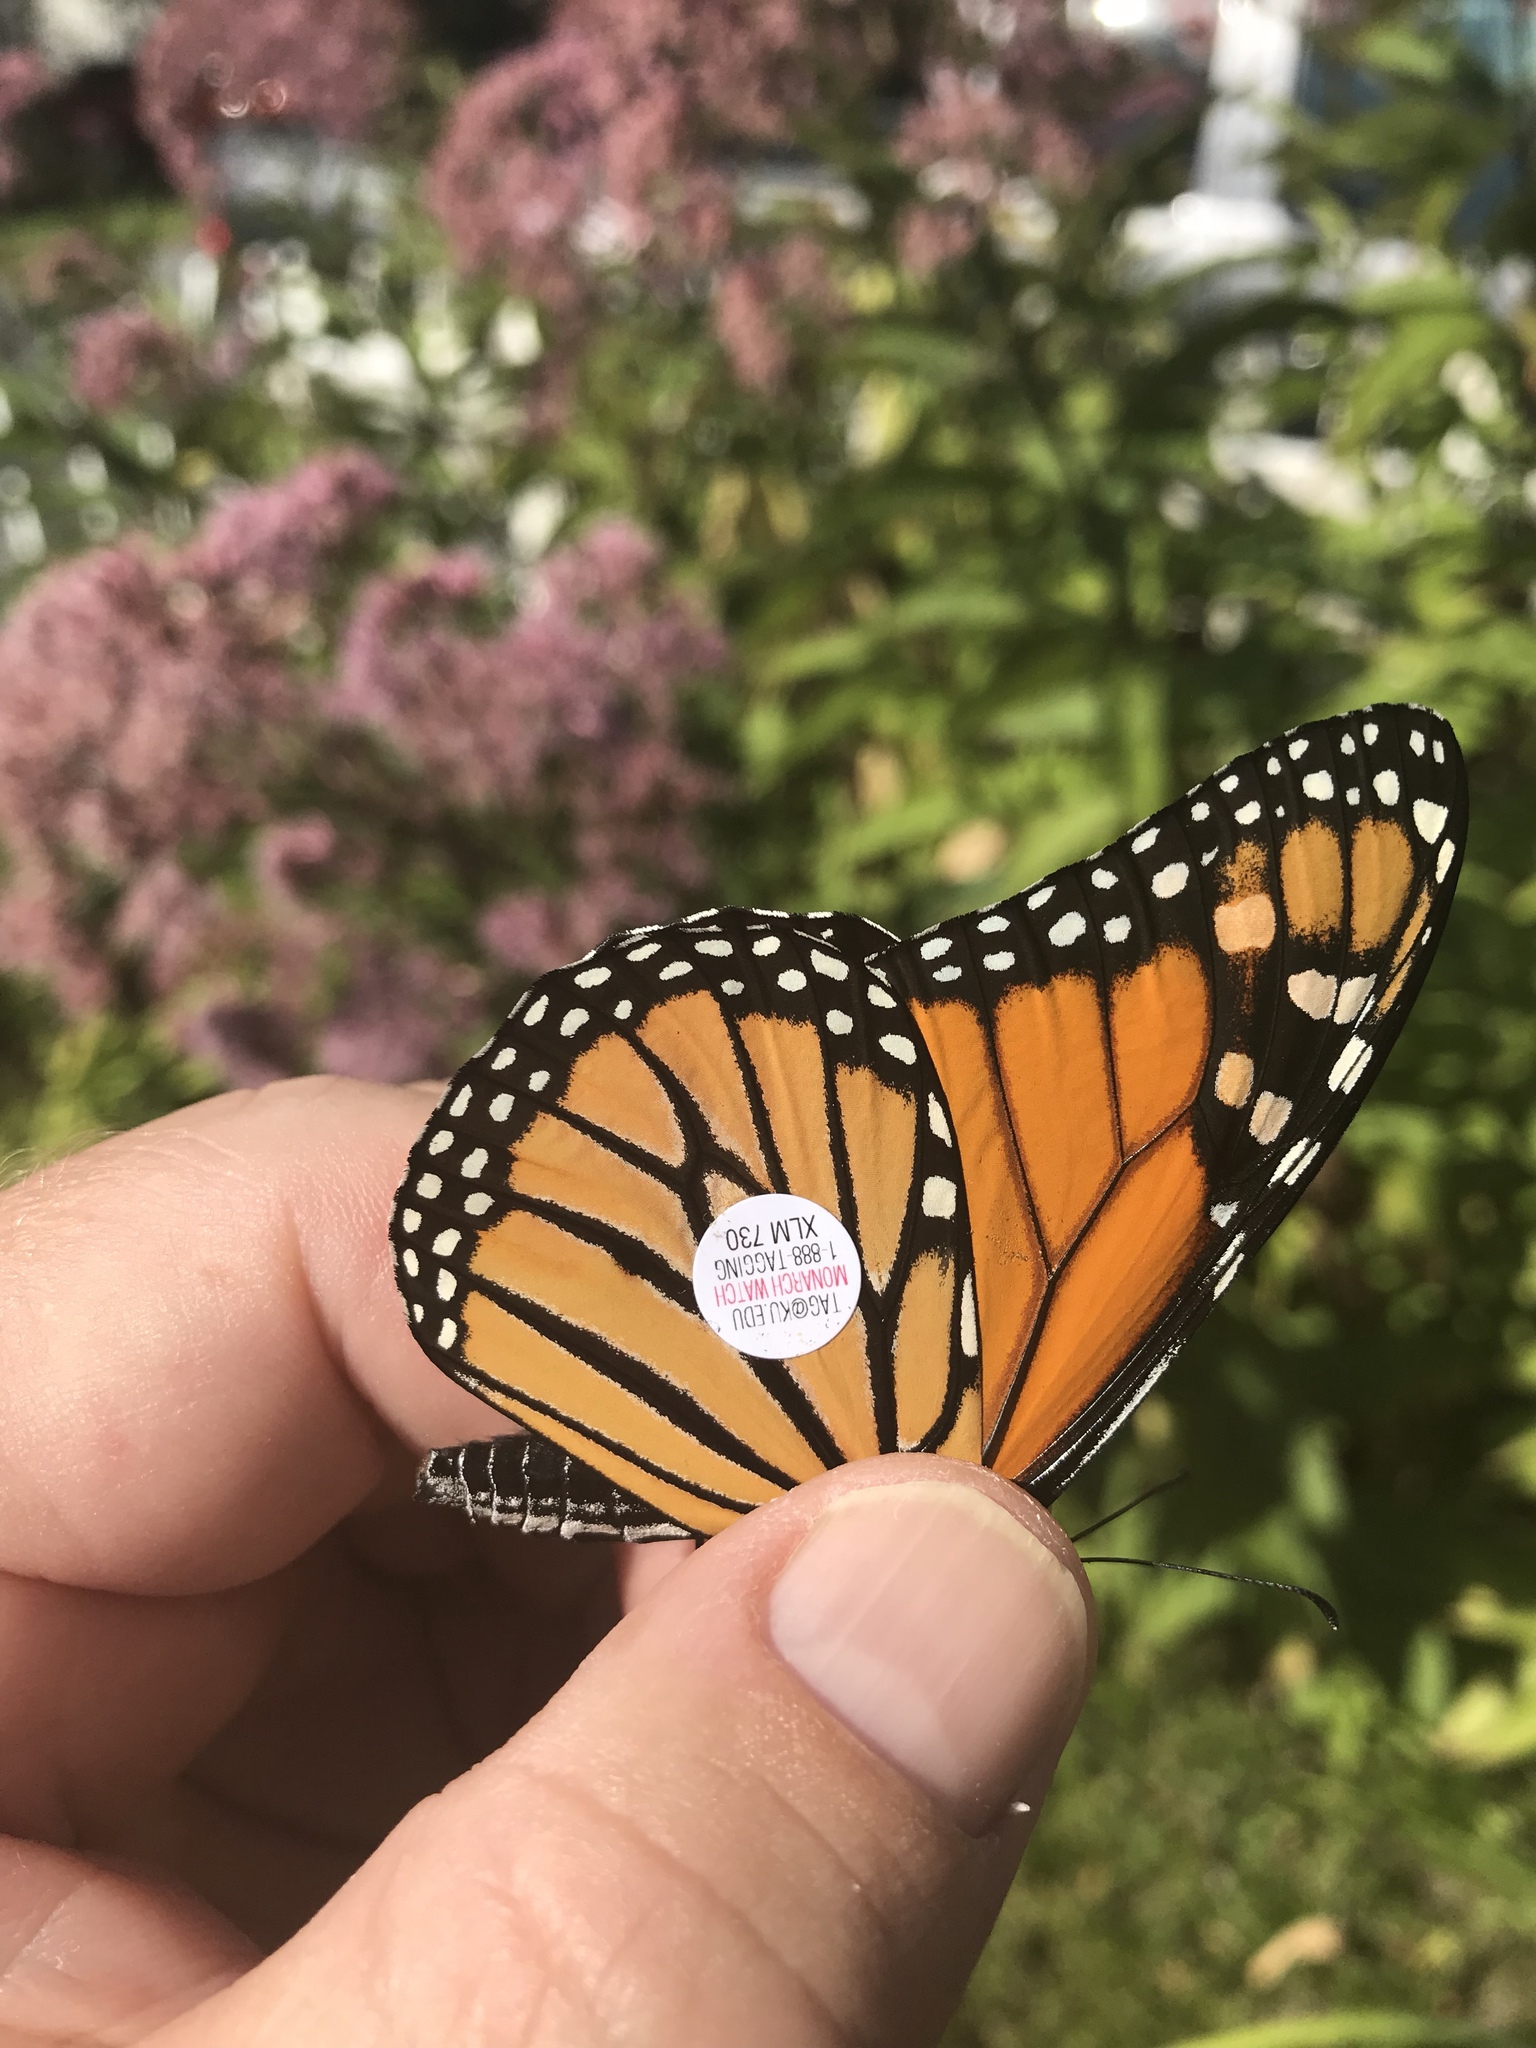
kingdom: Animalia
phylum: Arthropoda
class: Insecta
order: Lepidoptera
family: Nymphalidae
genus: Danaus
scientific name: Danaus plexippus
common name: Monarch
